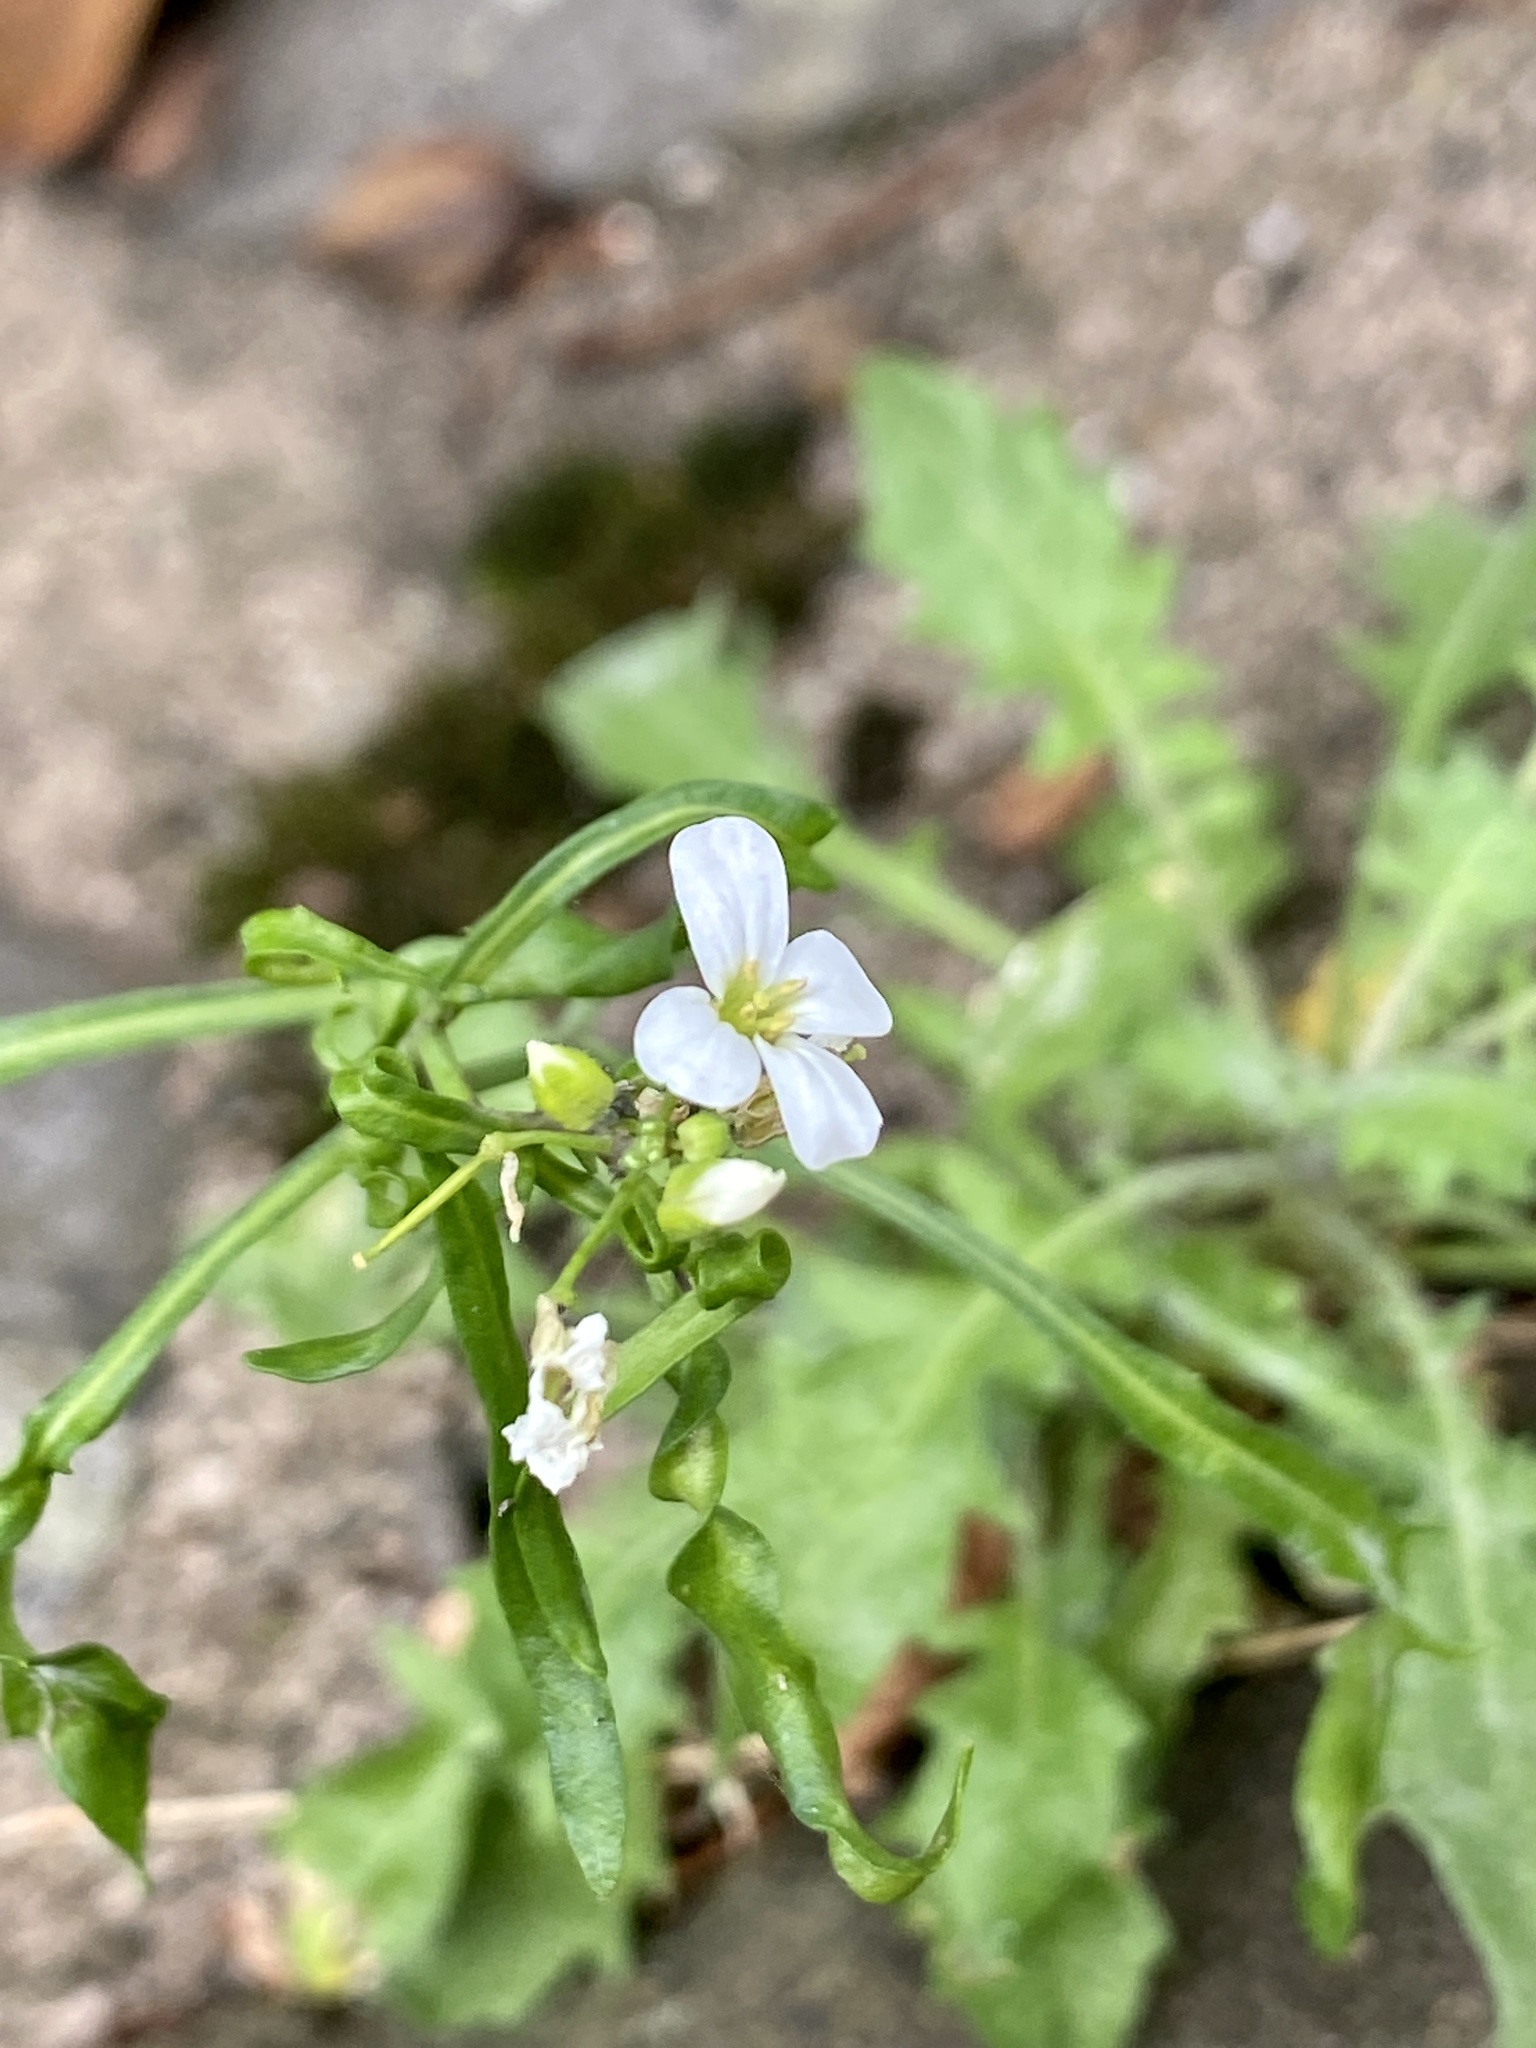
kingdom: Plantae
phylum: Tracheophyta
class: Magnoliopsida
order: Brassicales
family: Brassicaceae
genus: Arabidopsis
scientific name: Arabidopsis lyrata
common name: Lyrate rockcress
